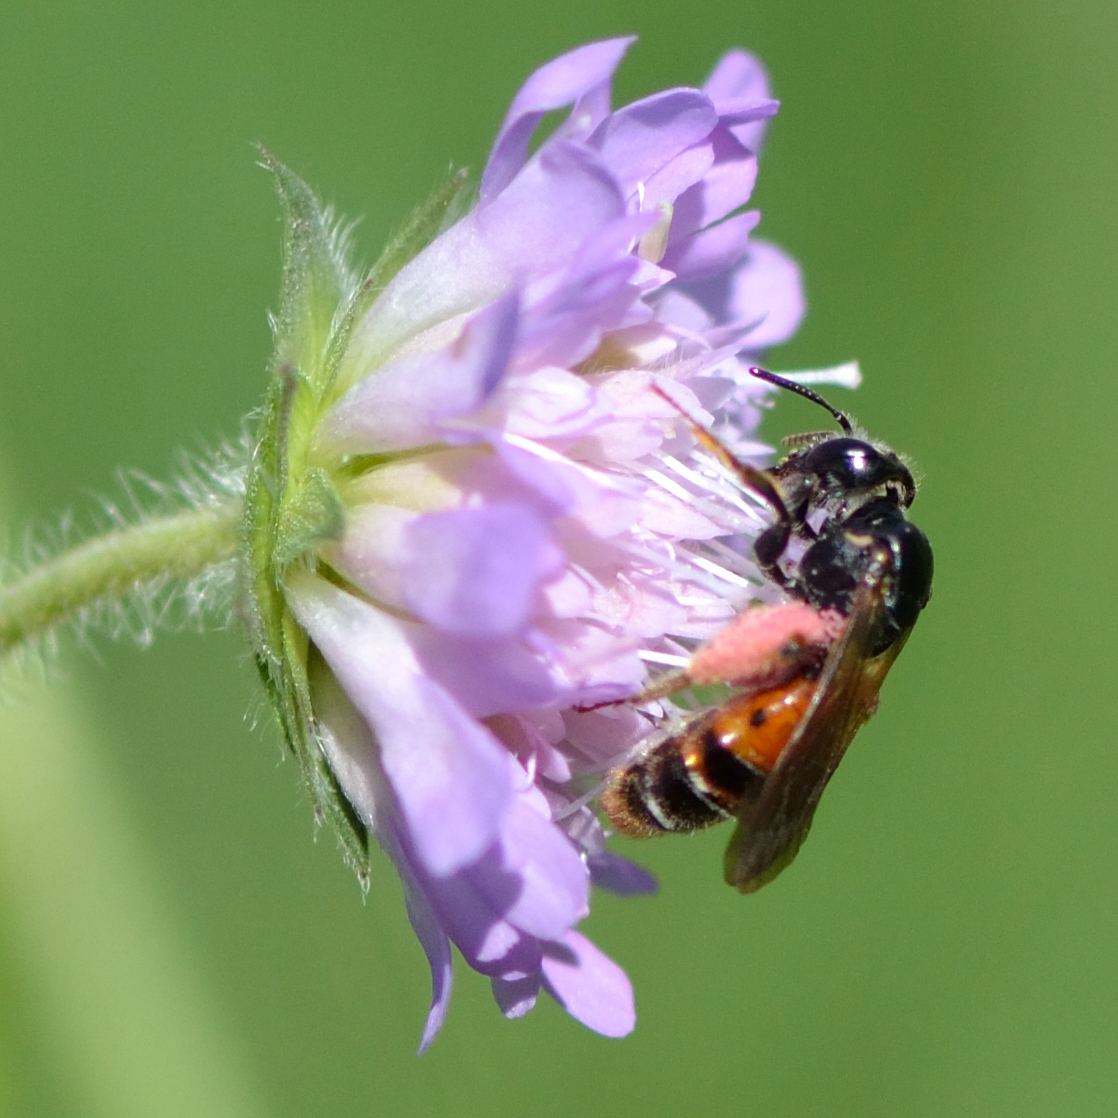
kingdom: Animalia
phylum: Arthropoda
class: Insecta
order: Hymenoptera
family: Andrenidae
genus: Andrena
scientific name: Andrena hattorfiana
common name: Large scabious mining bee
